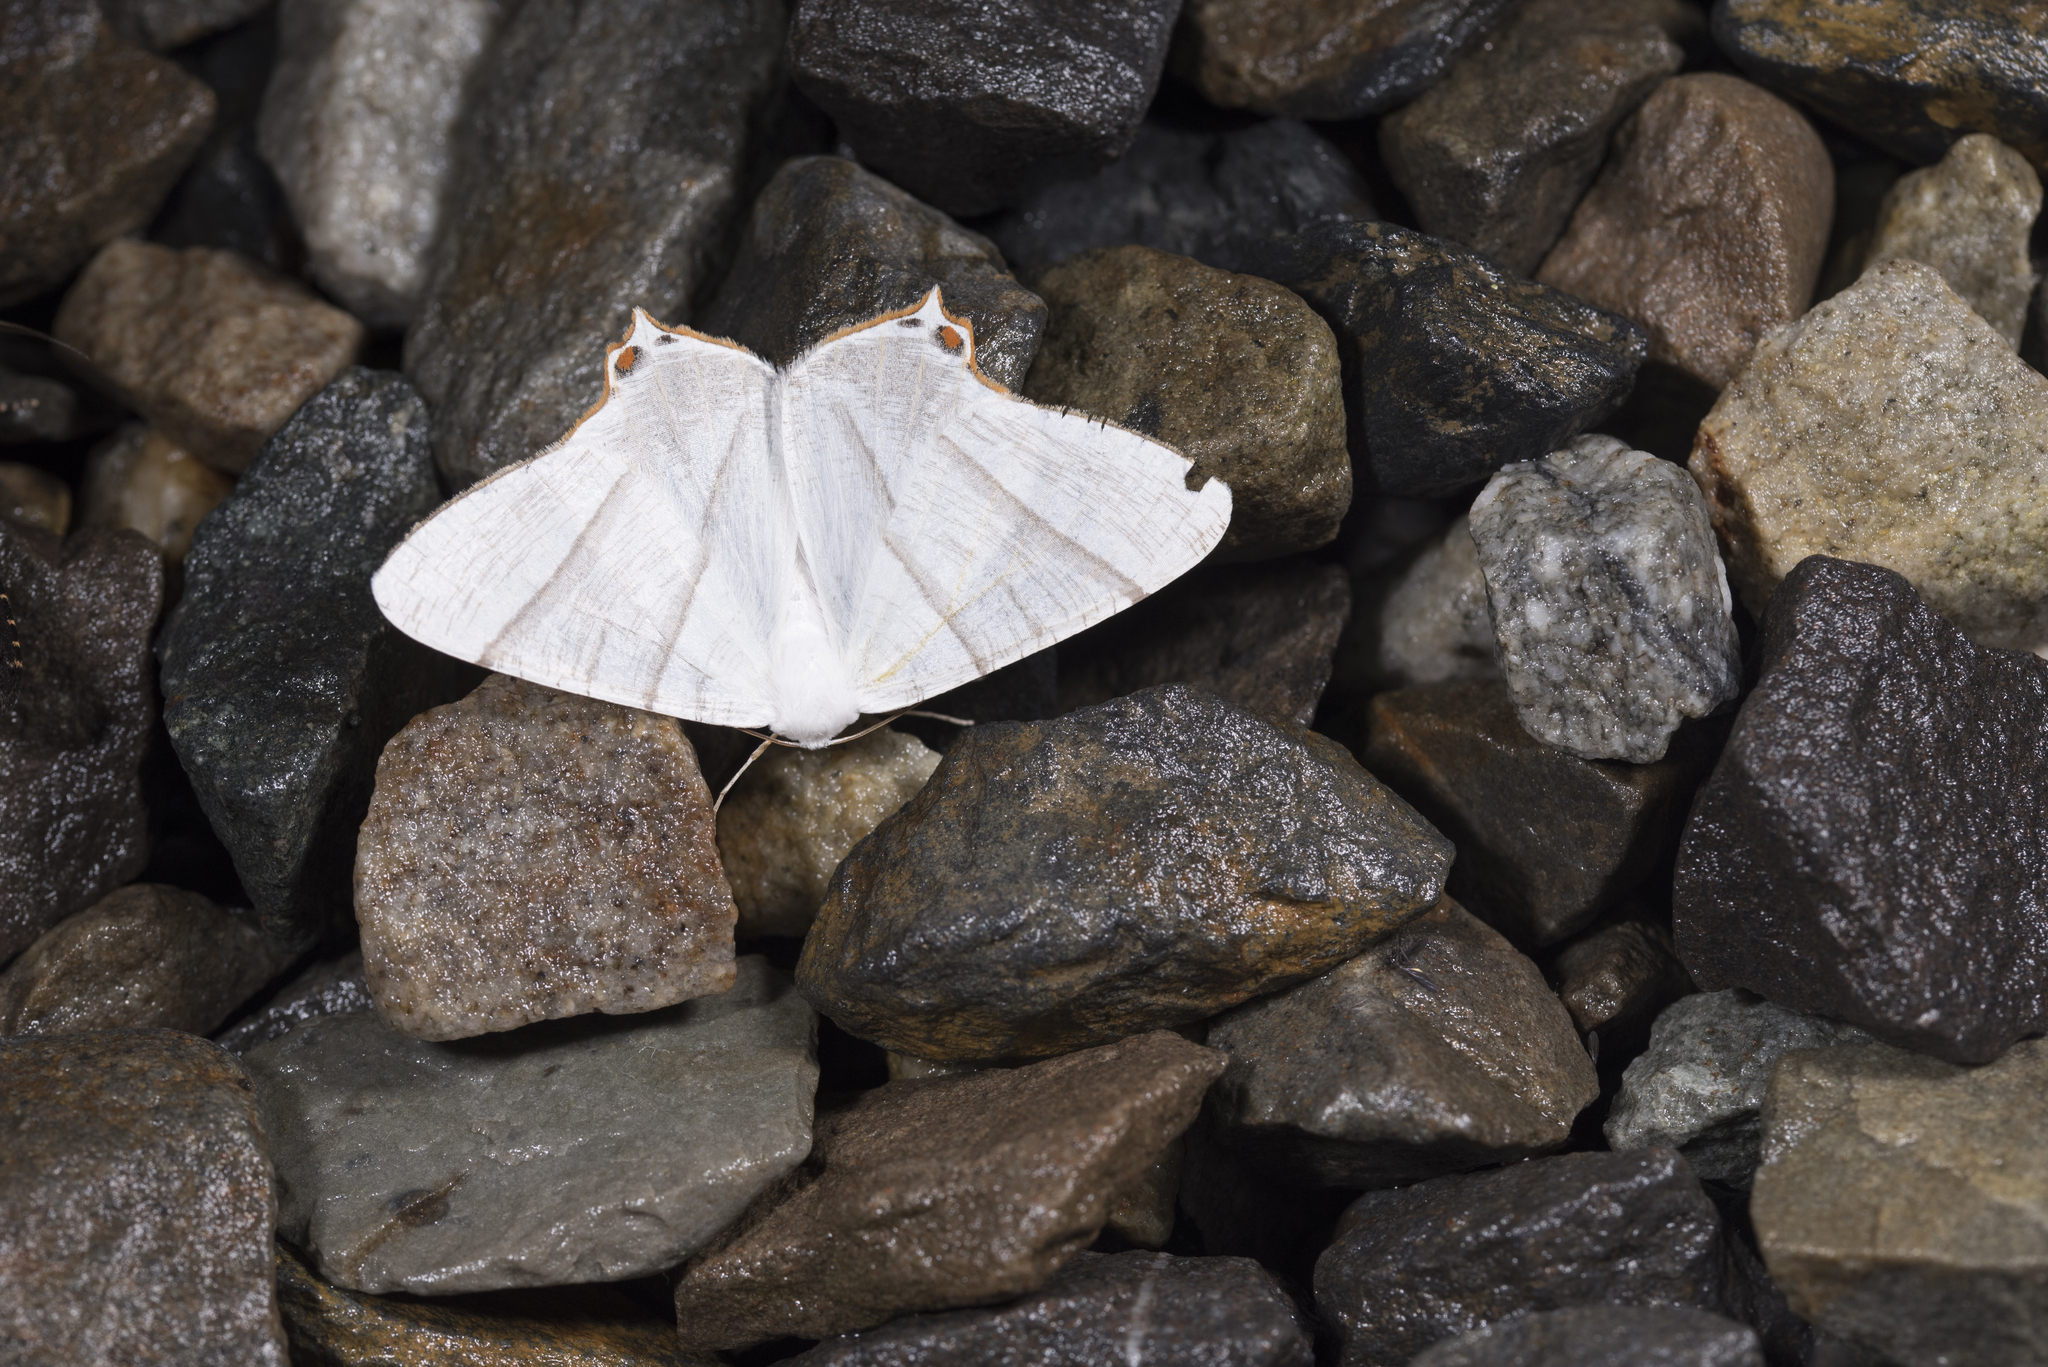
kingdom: Animalia
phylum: Arthropoda
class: Insecta
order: Lepidoptera
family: Geometridae
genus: Ourapteryx
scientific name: Ourapteryx similaria
